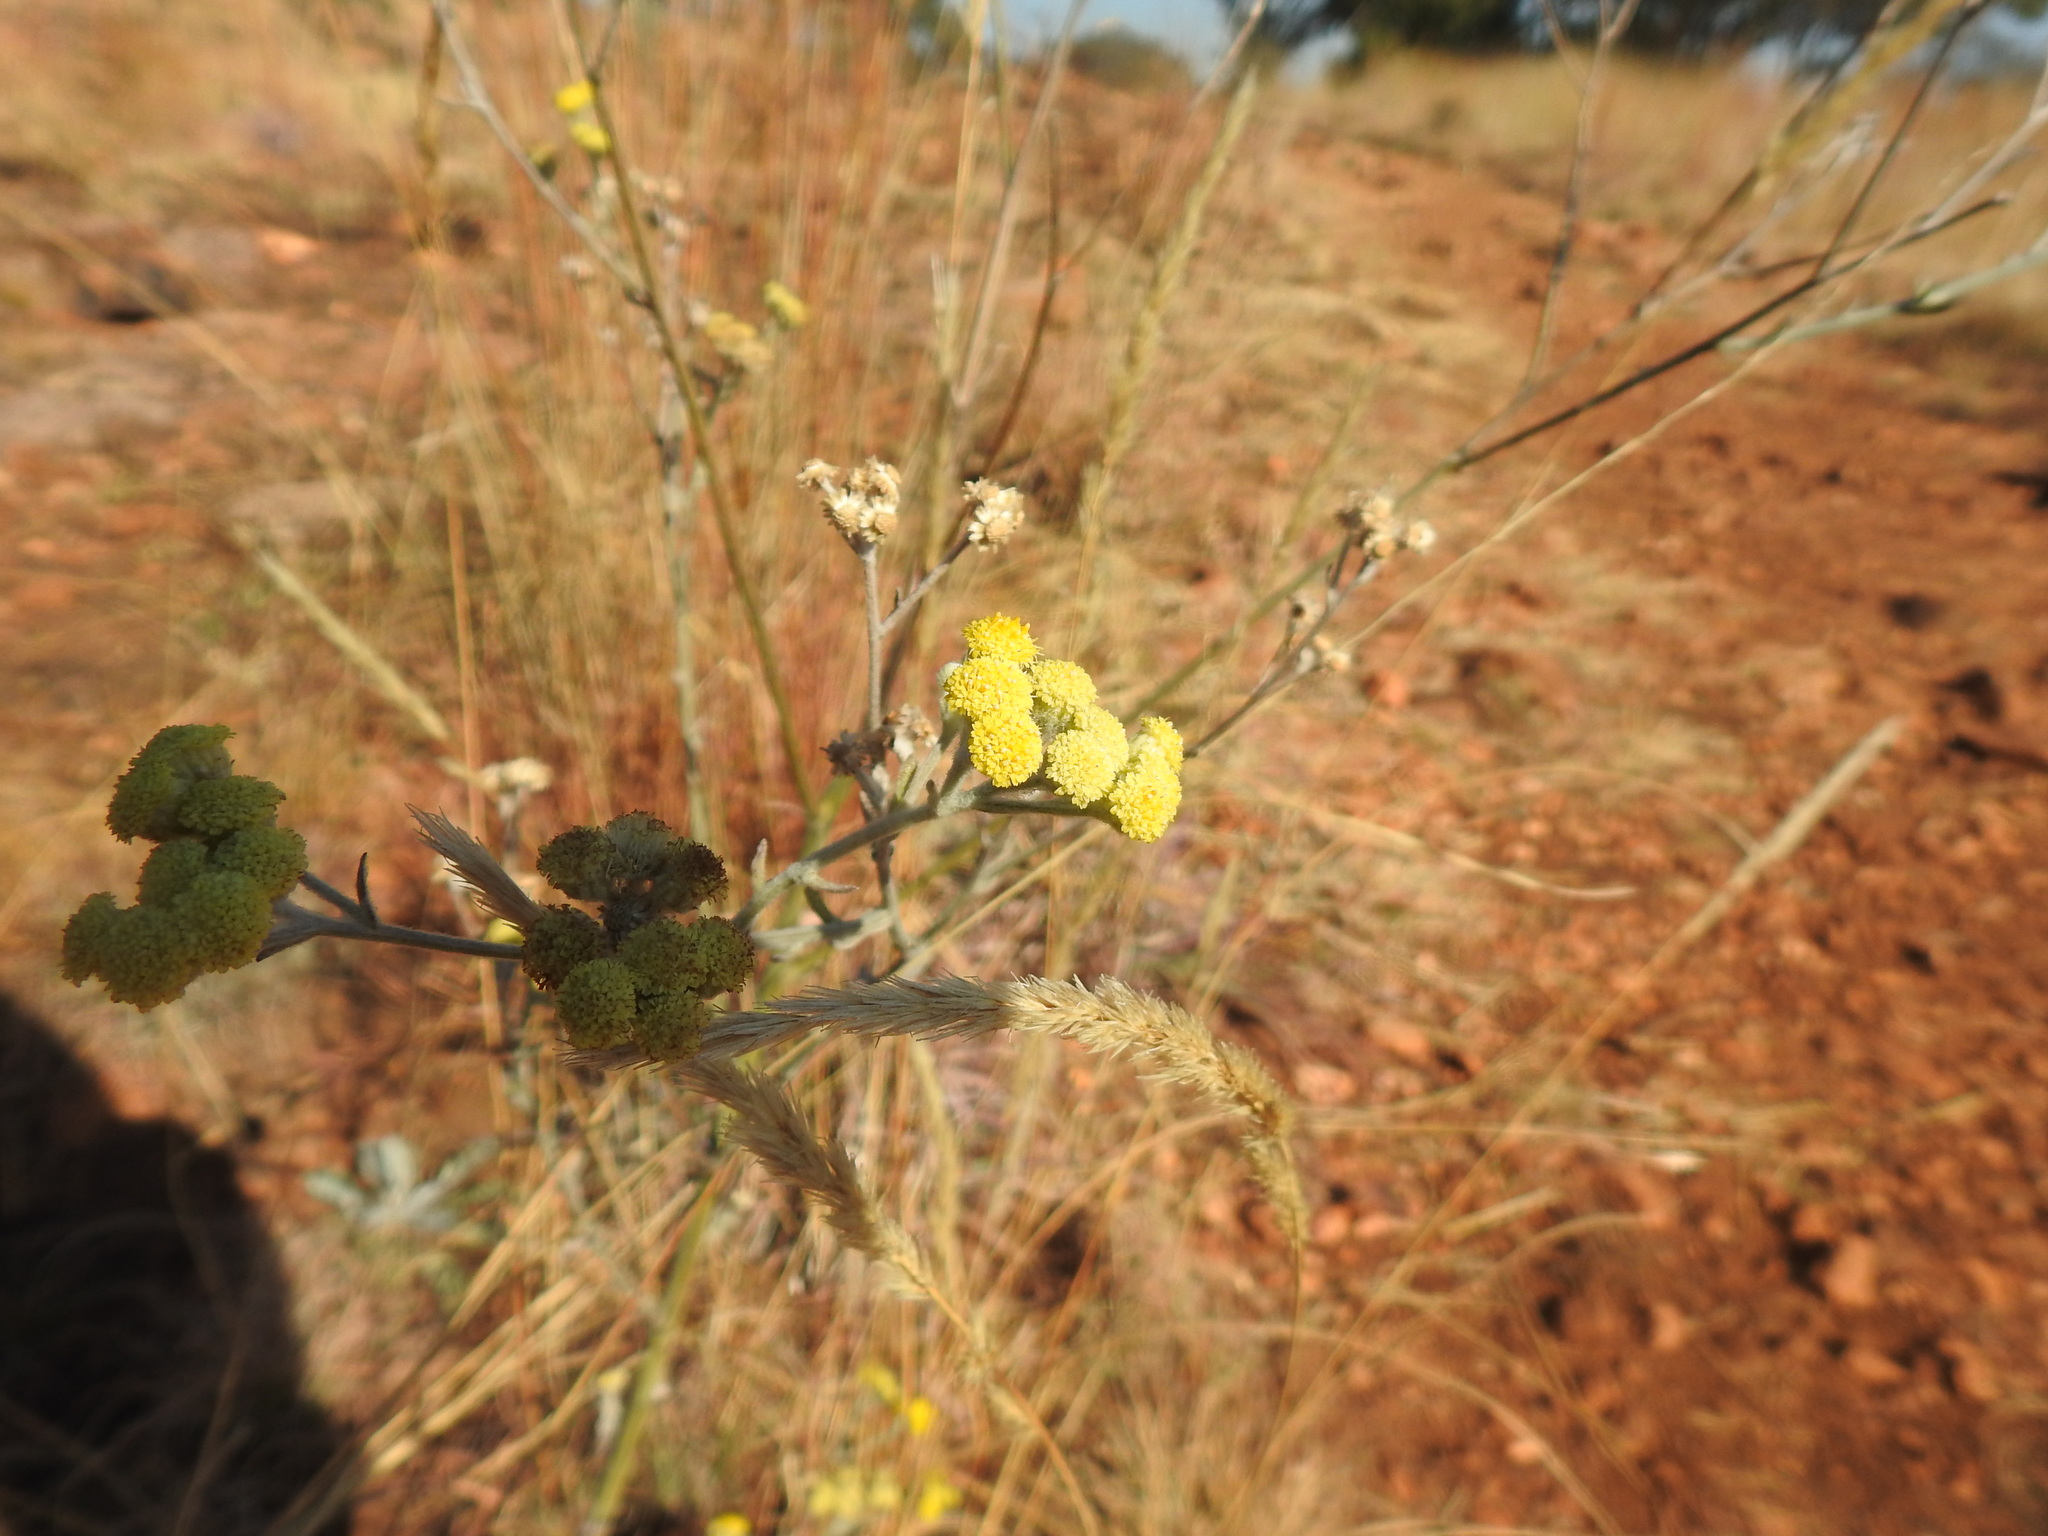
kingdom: Plantae
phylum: Tracheophyta
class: Magnoliopsida
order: Asterales
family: Asteraceae
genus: Nidorella
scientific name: Nidorella hottentotica
